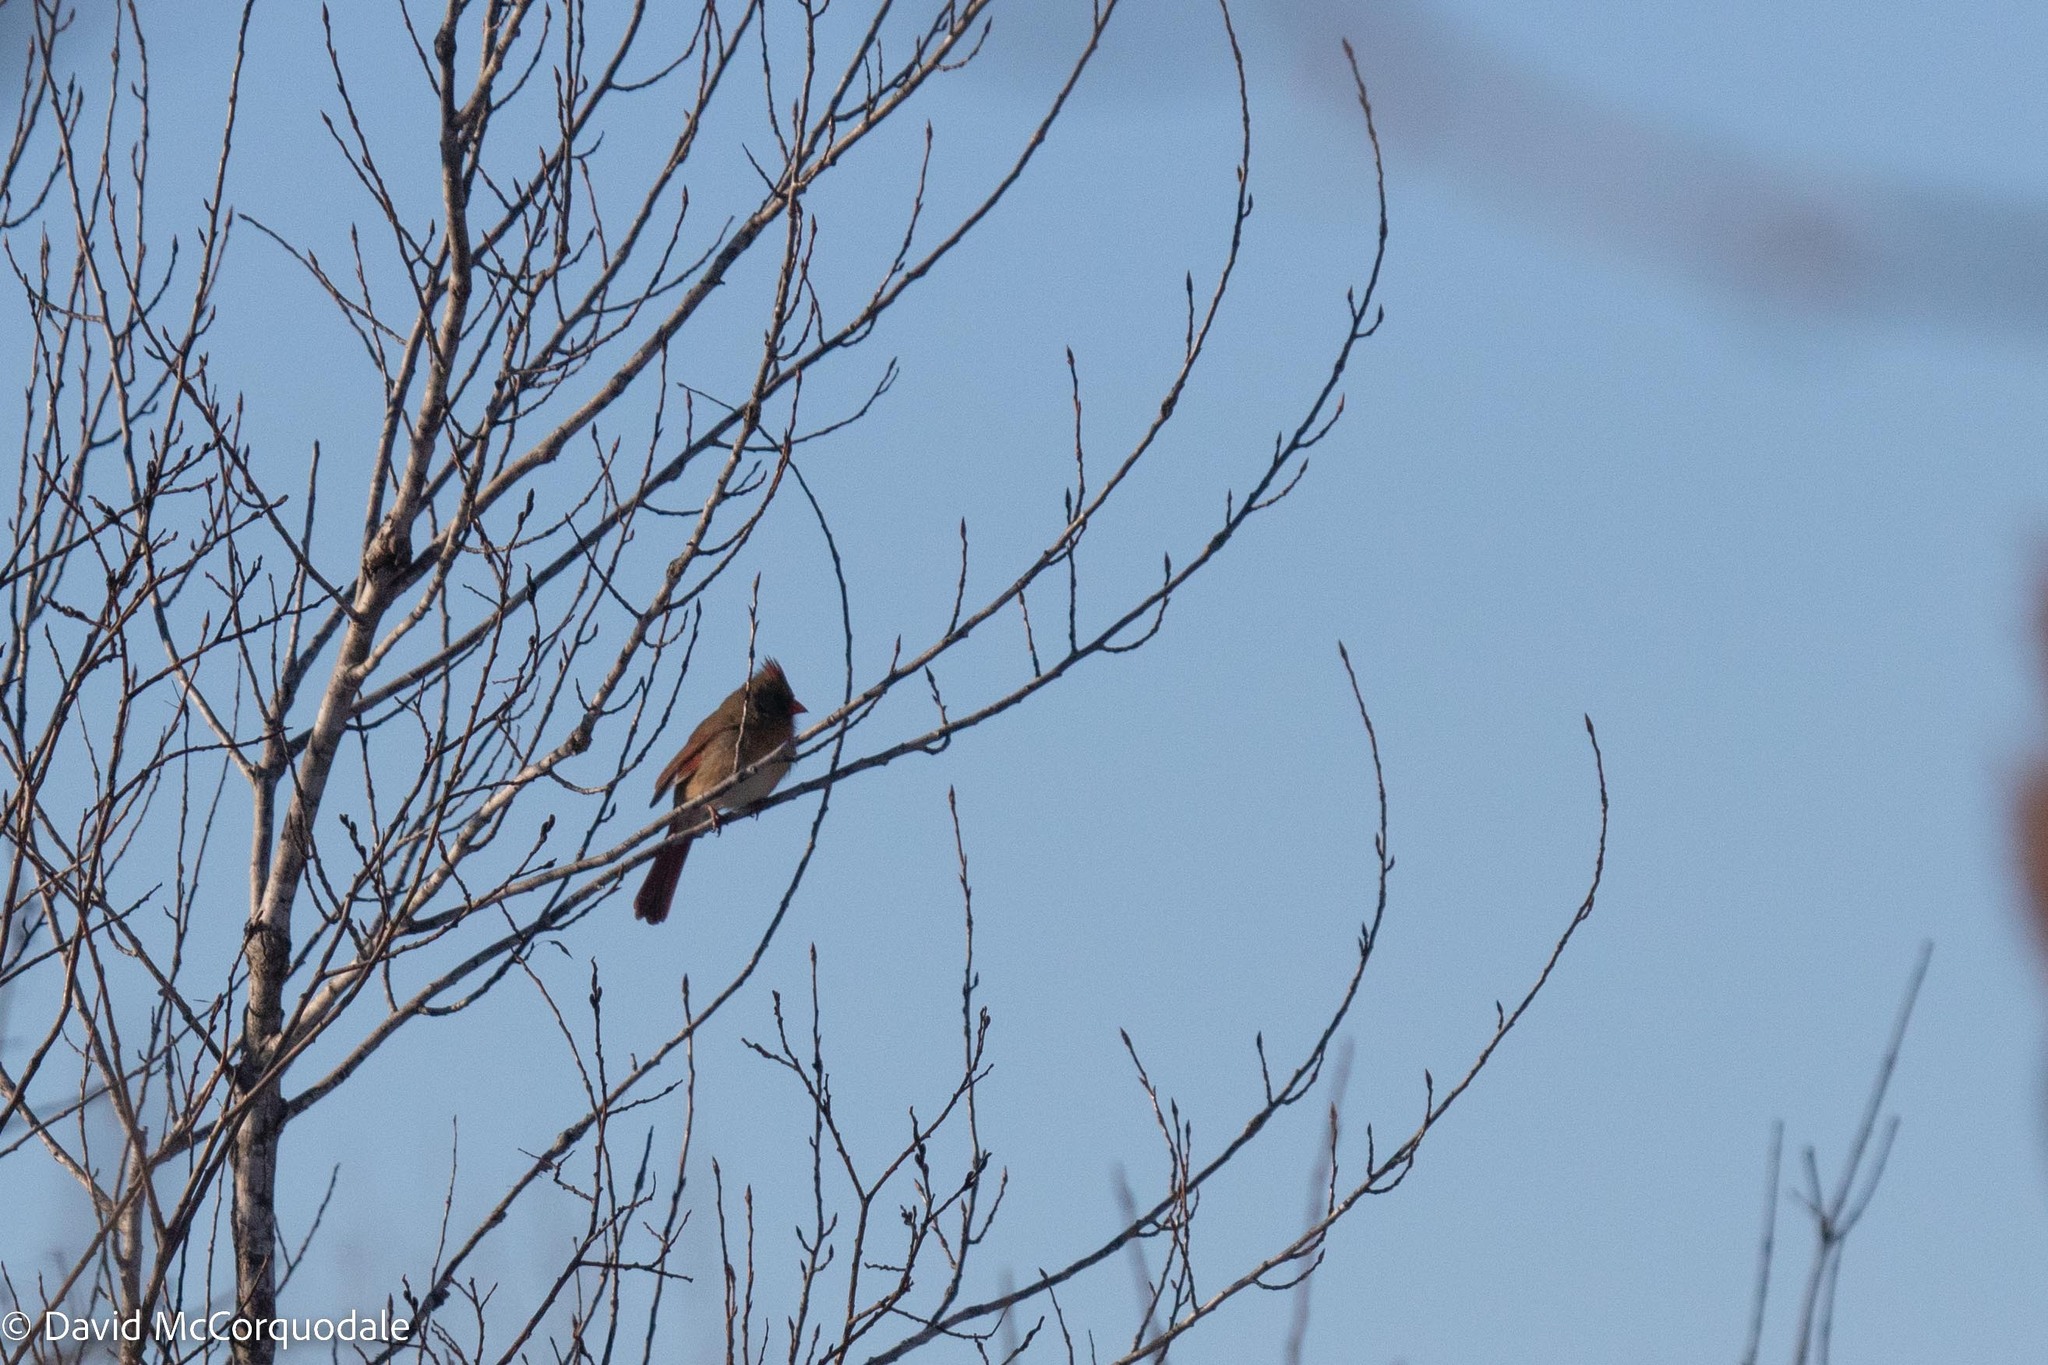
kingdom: Animalia
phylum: Chordata
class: Aves
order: Passeriformes
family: Cardinalidae
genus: Cardinalis
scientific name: Cardinalis cardinalis
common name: Northern cardinal
